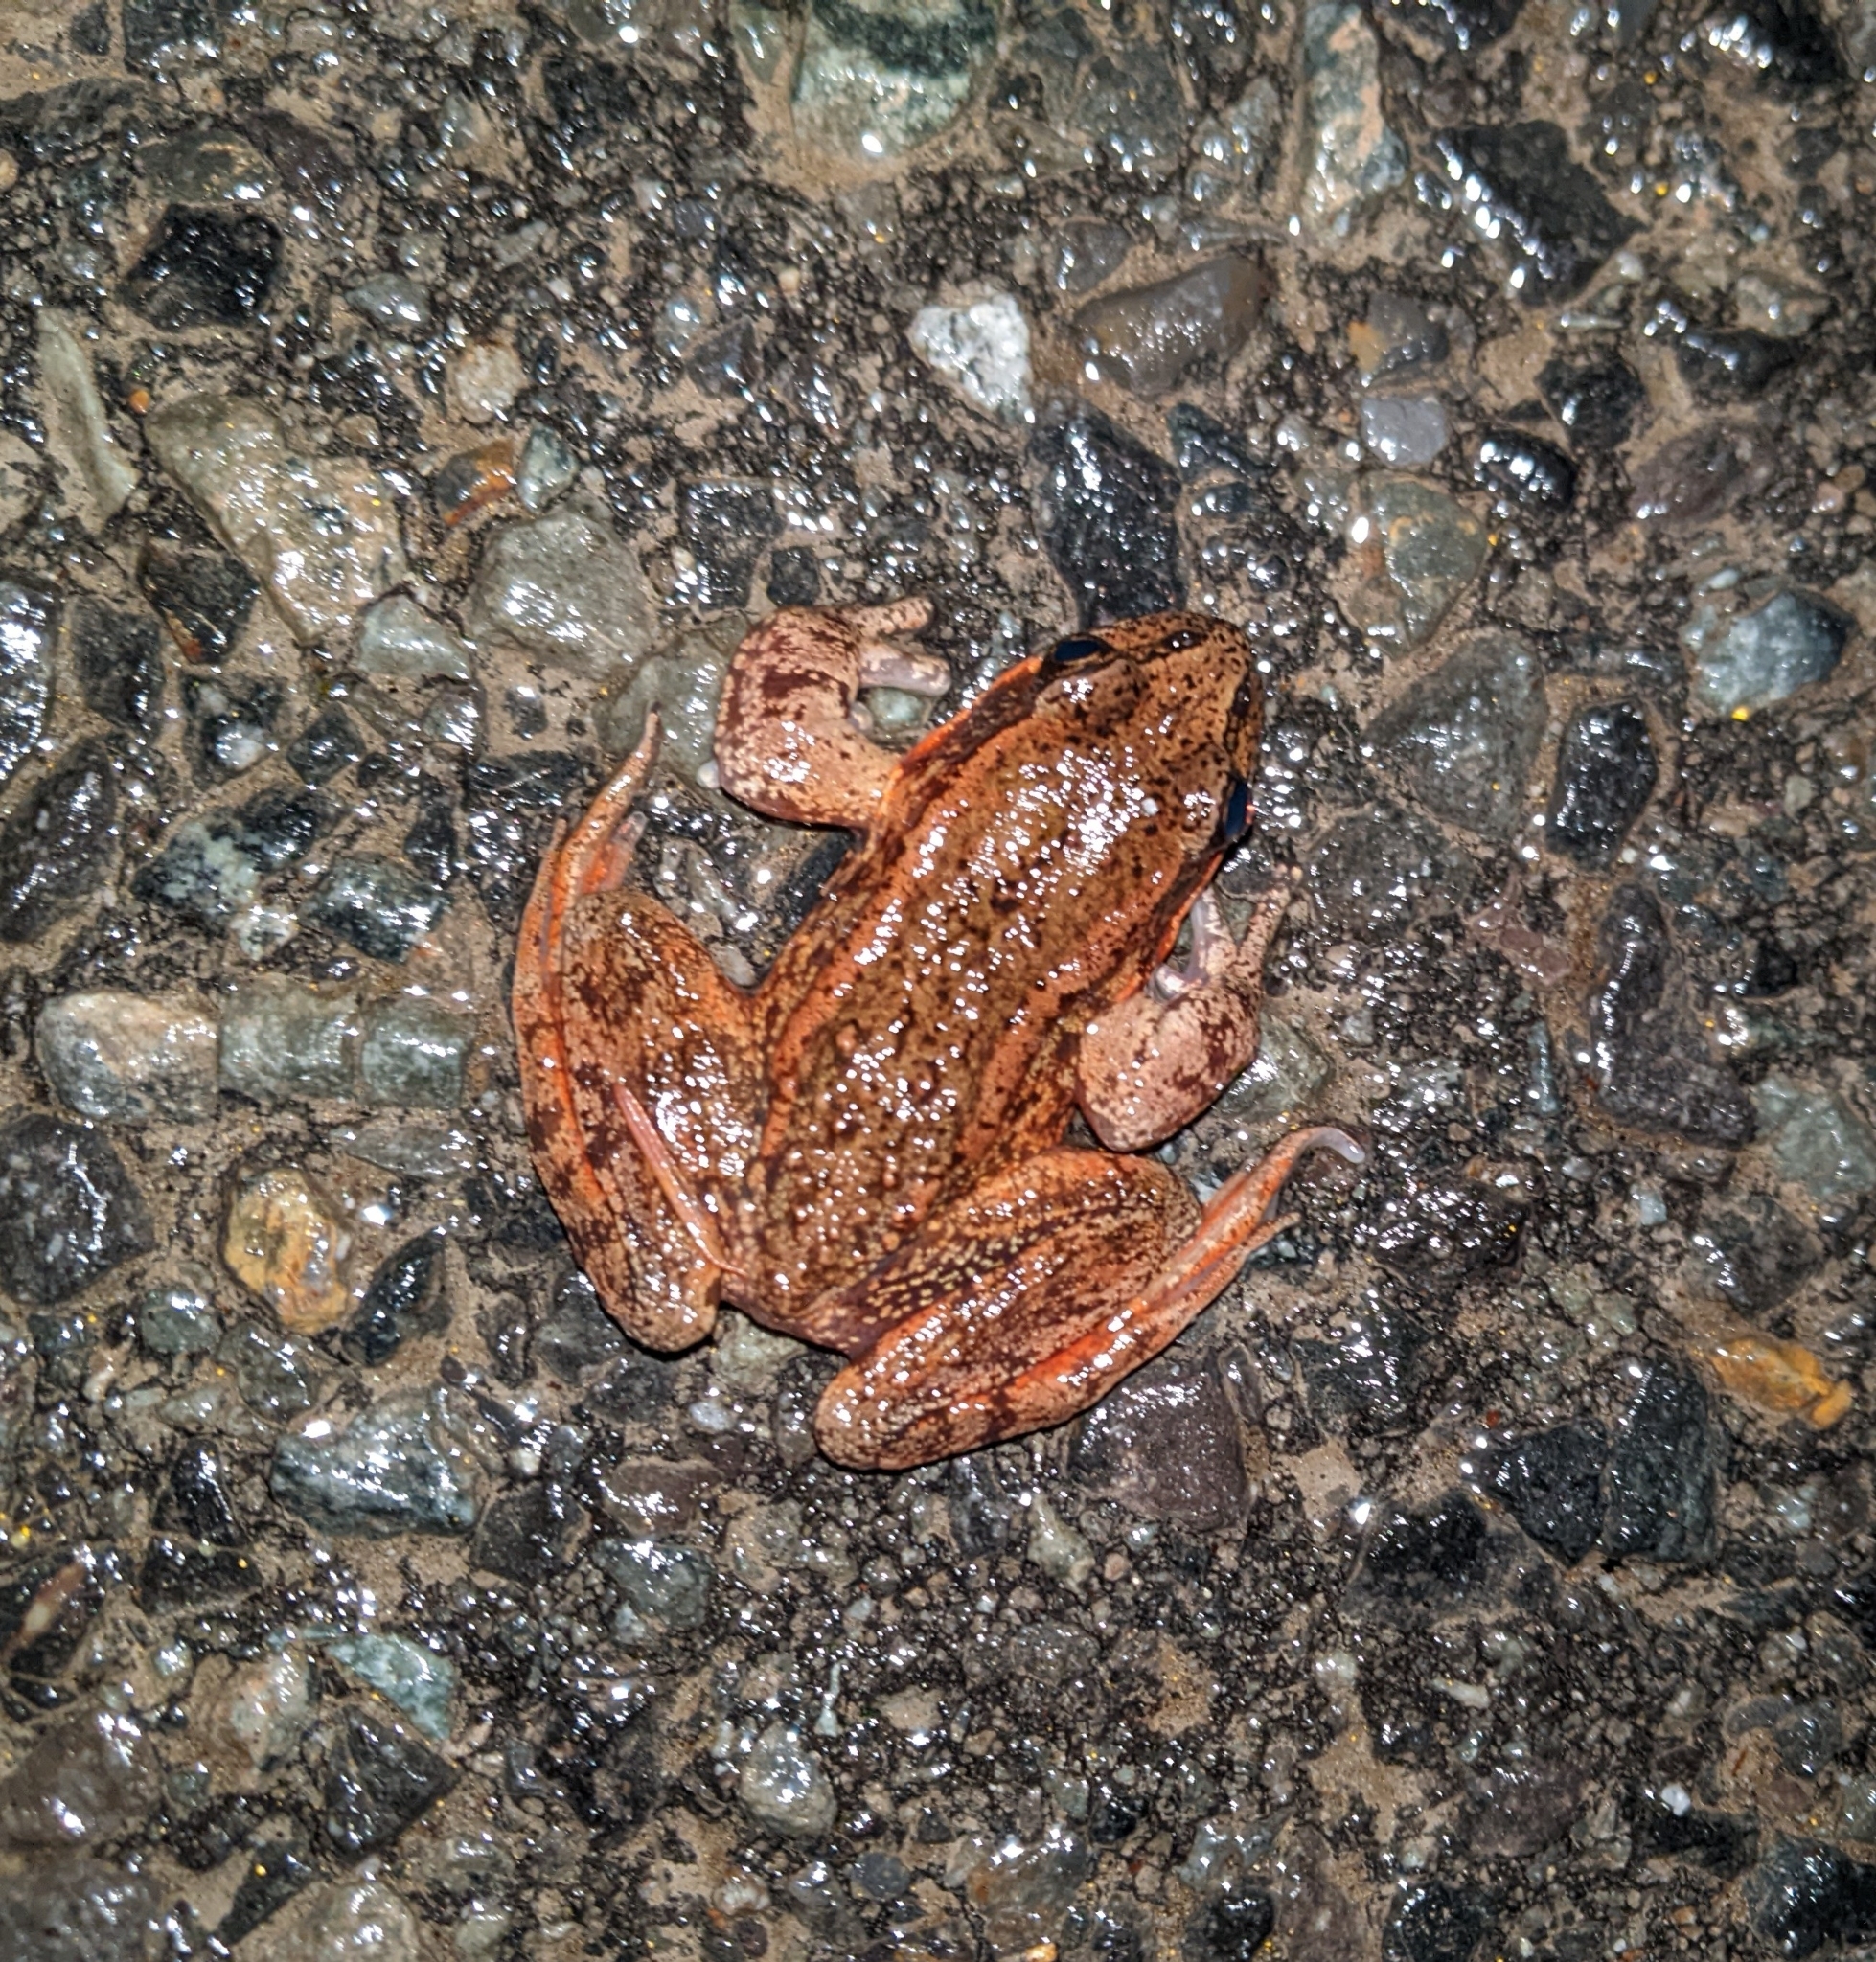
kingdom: Animalia
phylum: Chordata
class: Amphibia
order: Anura
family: Ranidae
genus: Rana
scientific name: Rana aurora
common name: Red-legged frog
